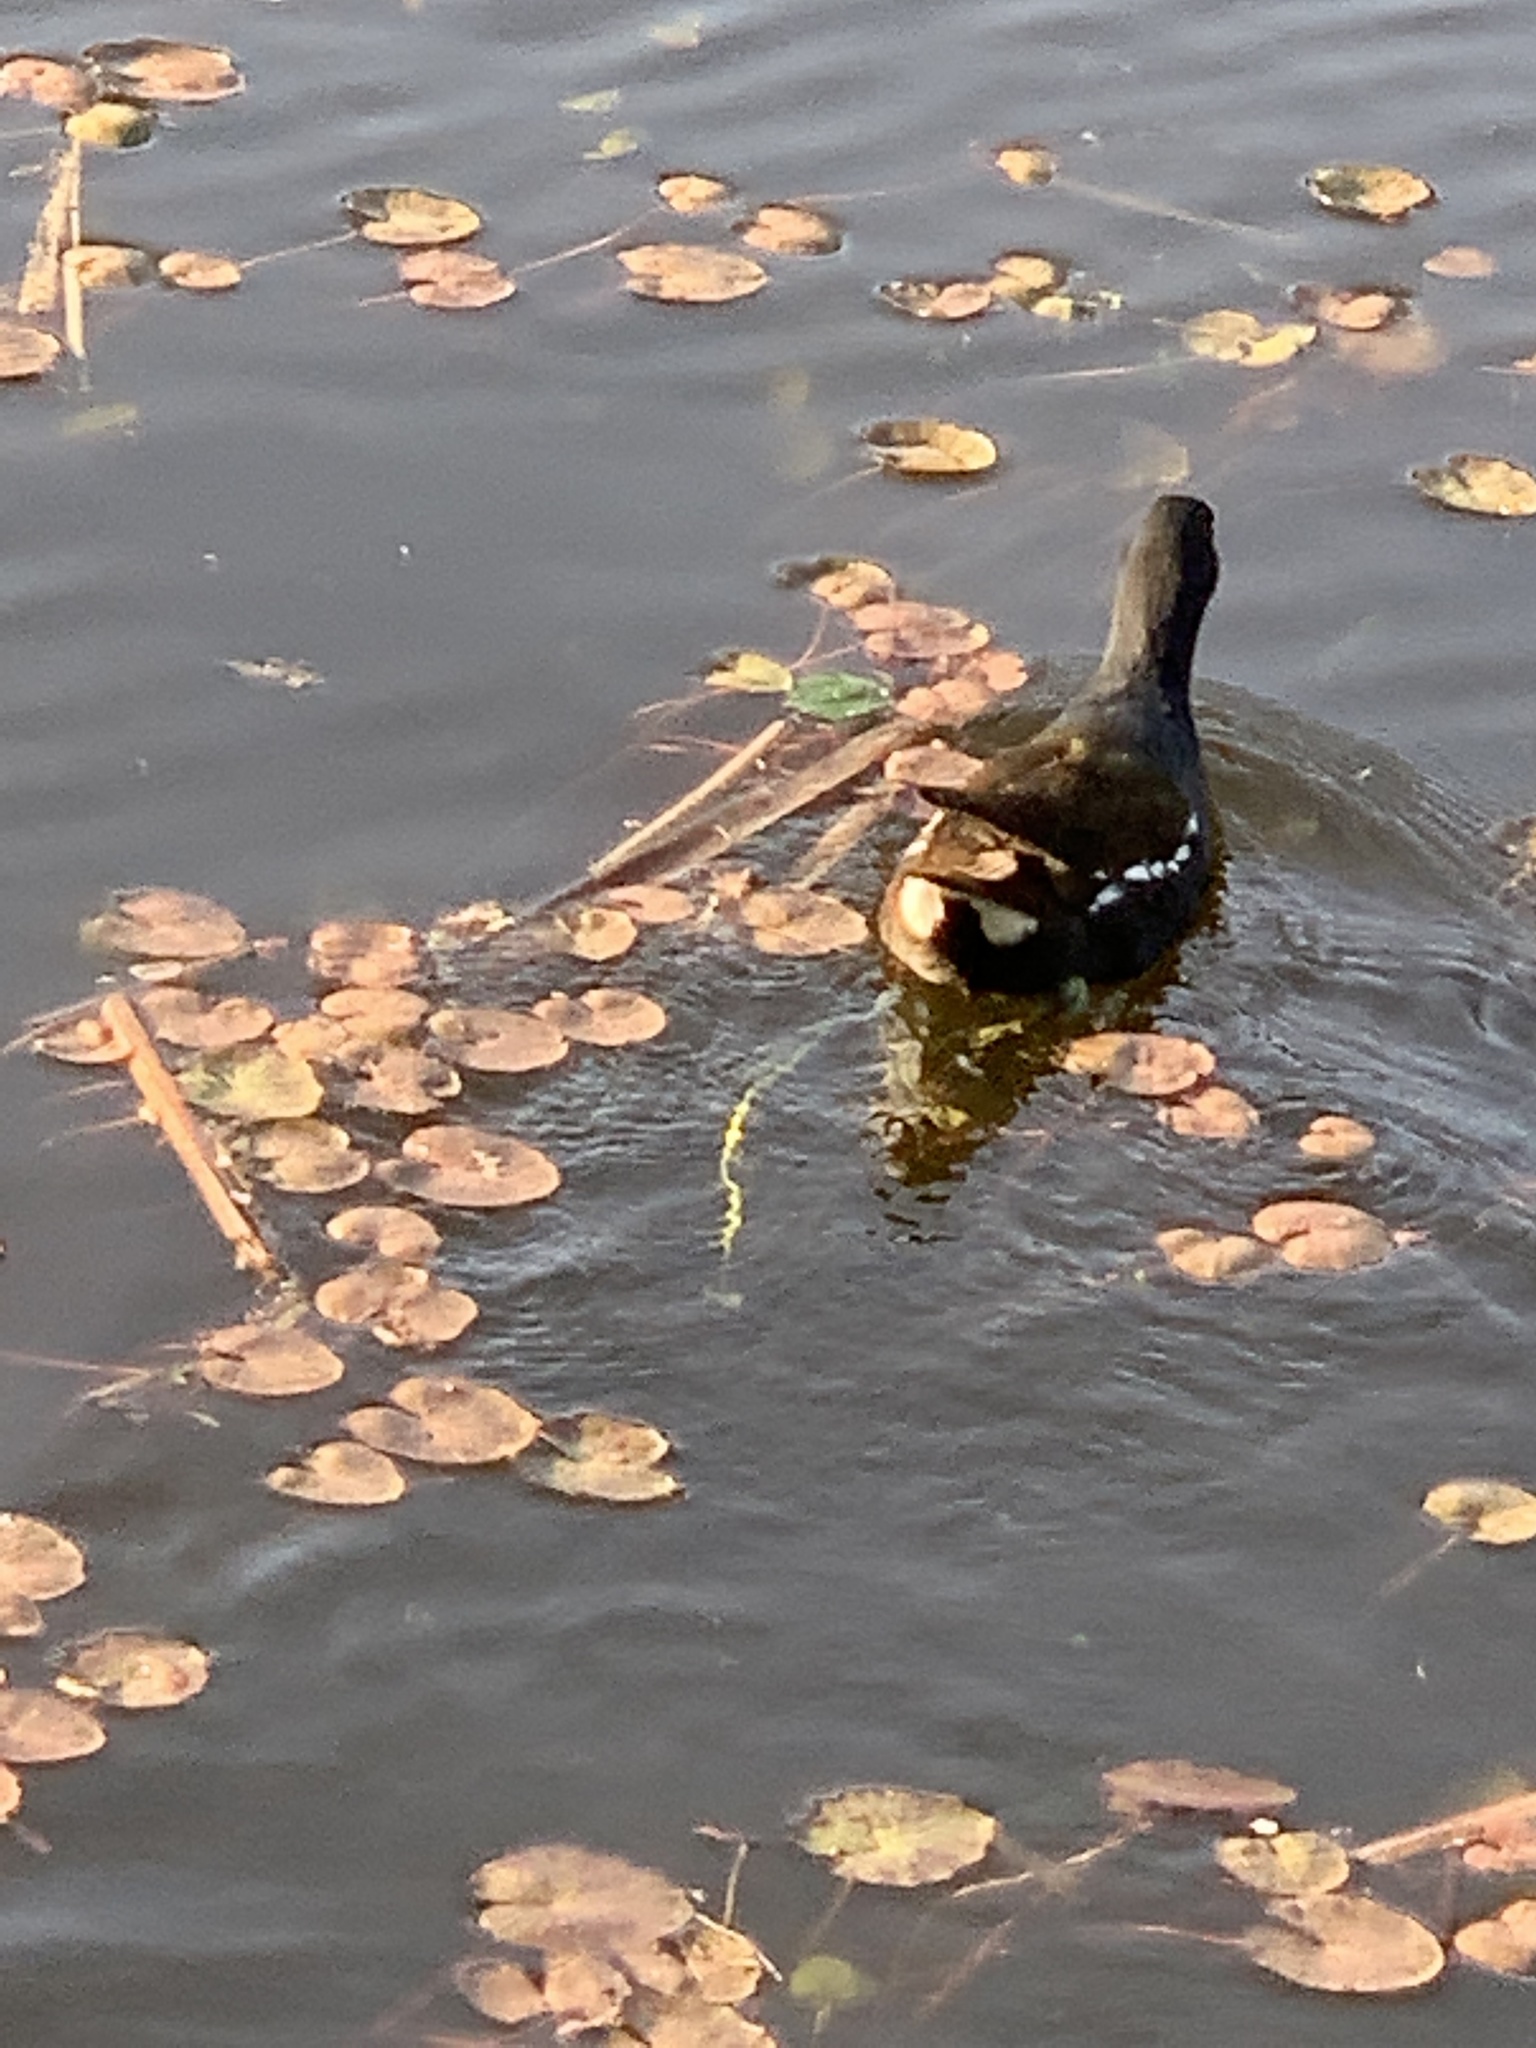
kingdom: Animalia
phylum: Chordata
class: Aves
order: Gruiformes
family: Rallidae
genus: Gallinula
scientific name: Gallinula chloropus
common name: Common moorhen
